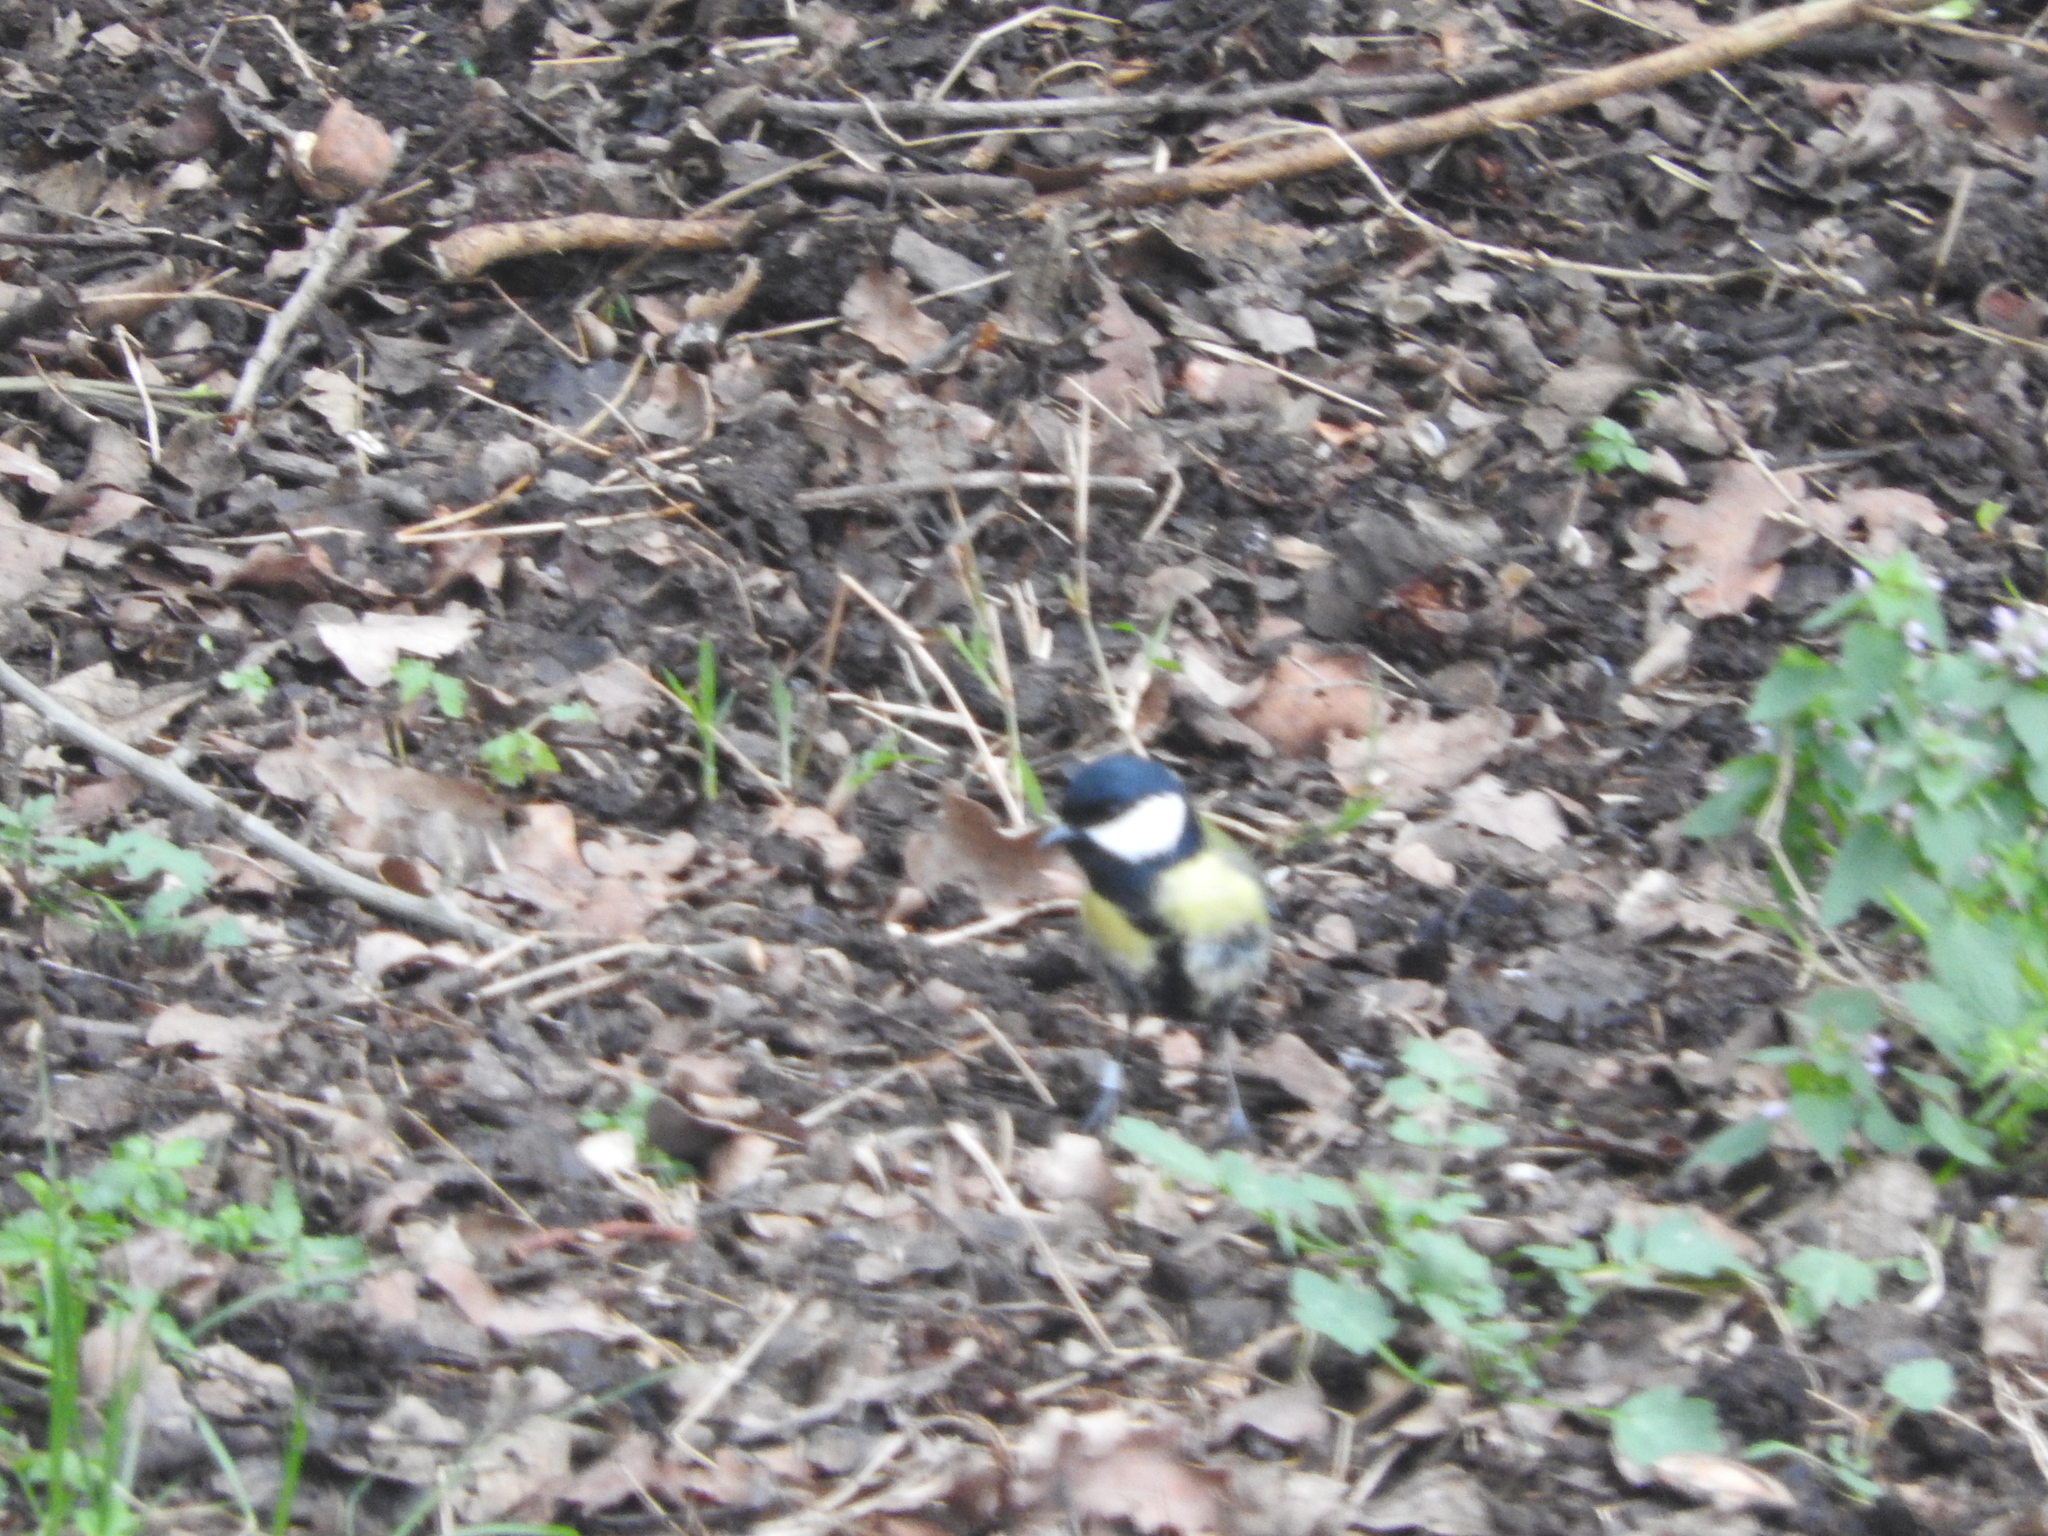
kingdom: Animalia
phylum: Chordata
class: Aves
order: Passeriformes
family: Paridae
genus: Parus
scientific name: Parus major
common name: Great tit
